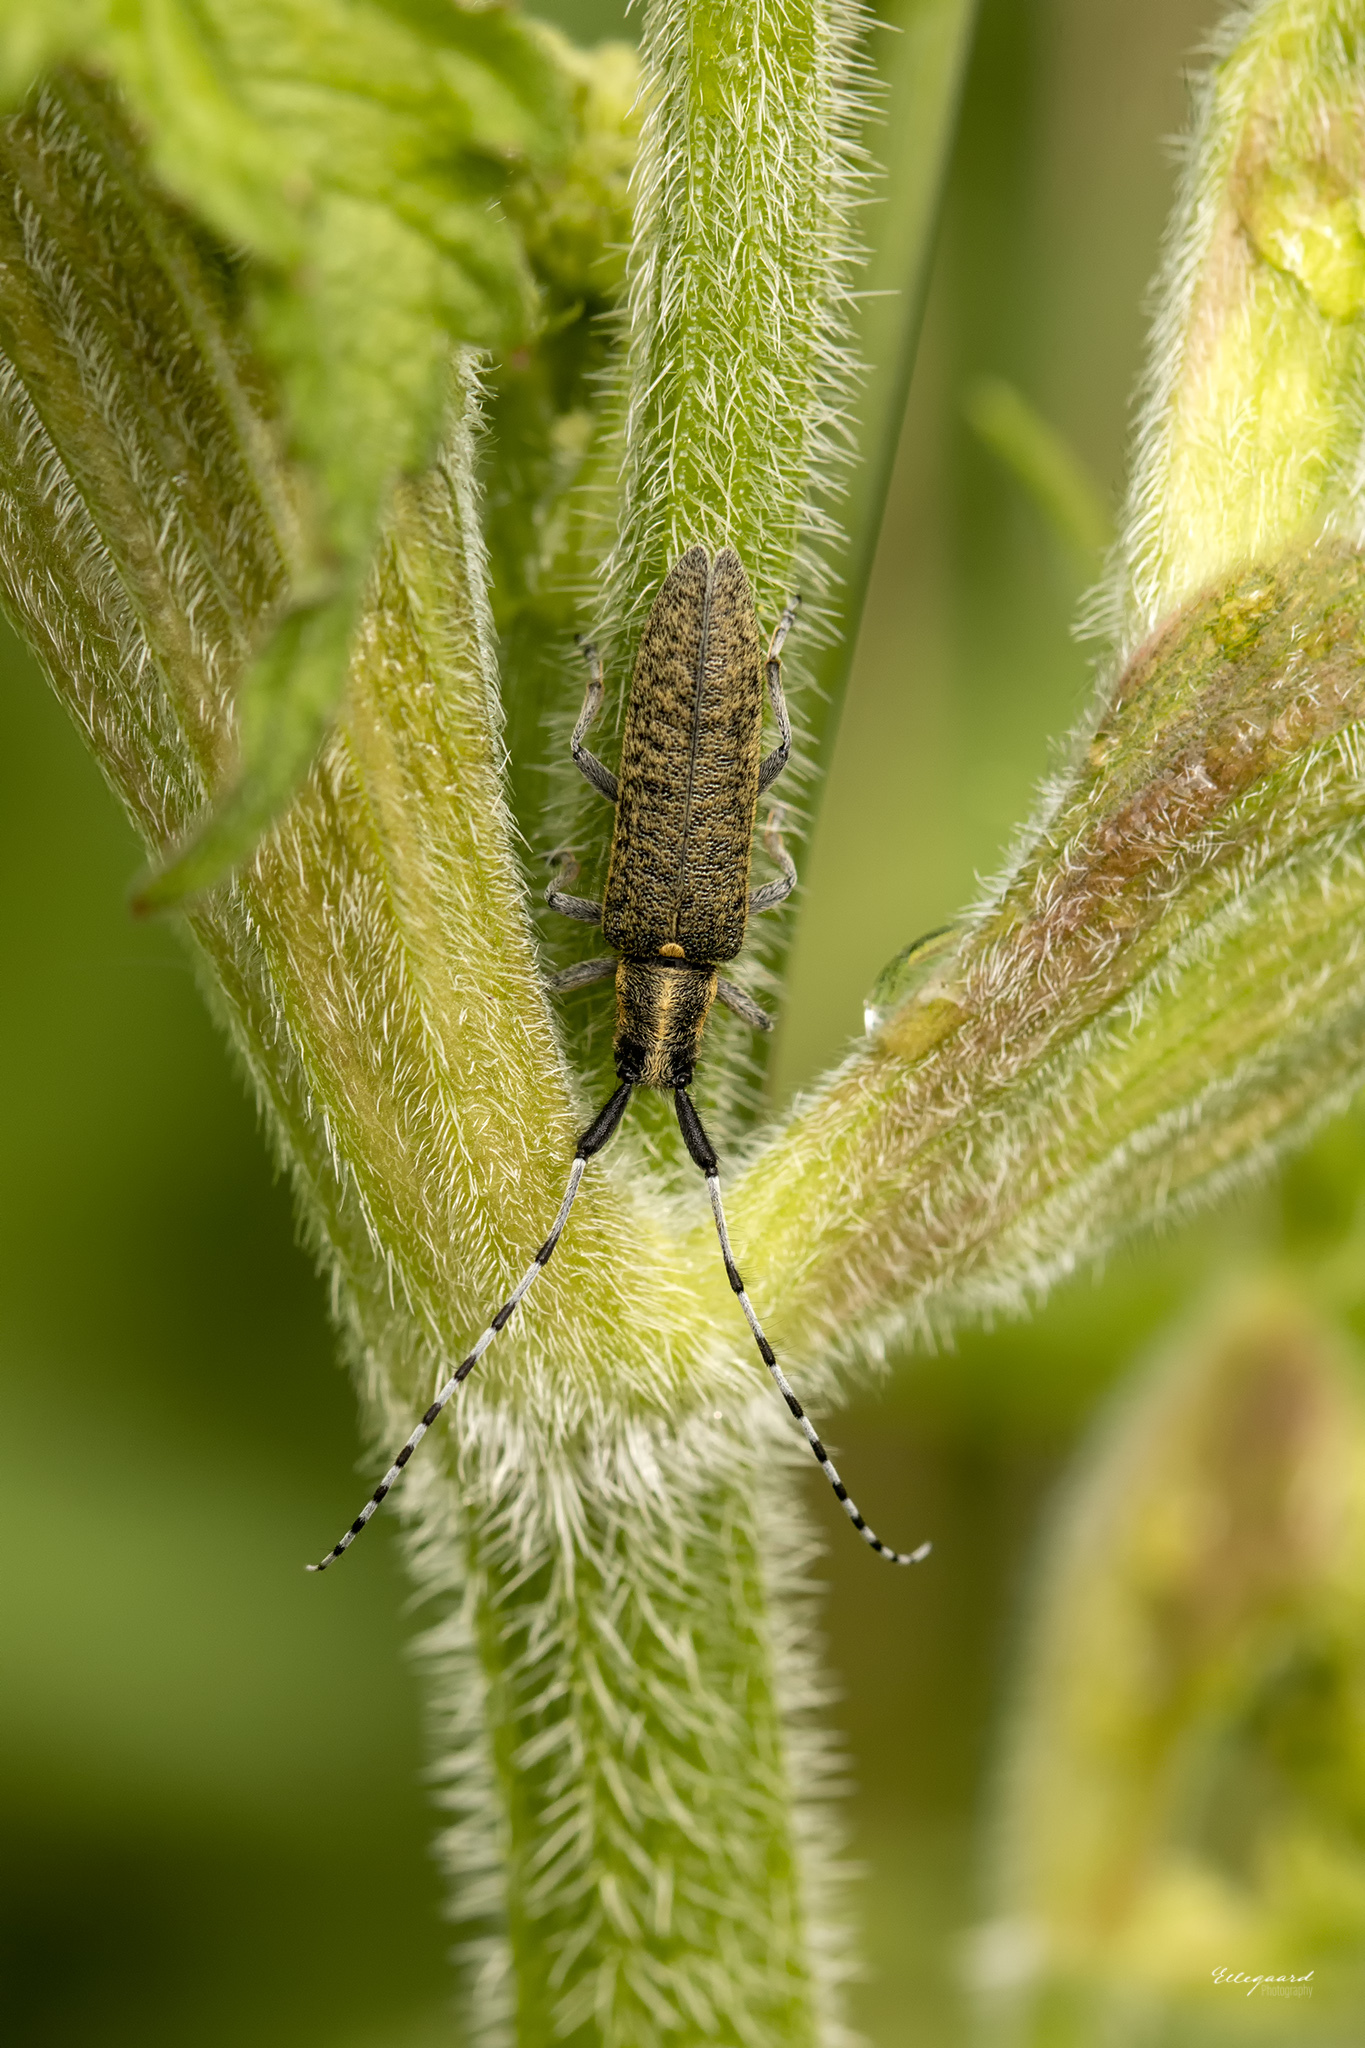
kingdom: Animalia
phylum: Arthropoda
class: Insecta
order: Coleoptera
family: Cerambycidae
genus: Agapanthia
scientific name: Agapanthia villosoviridescens
